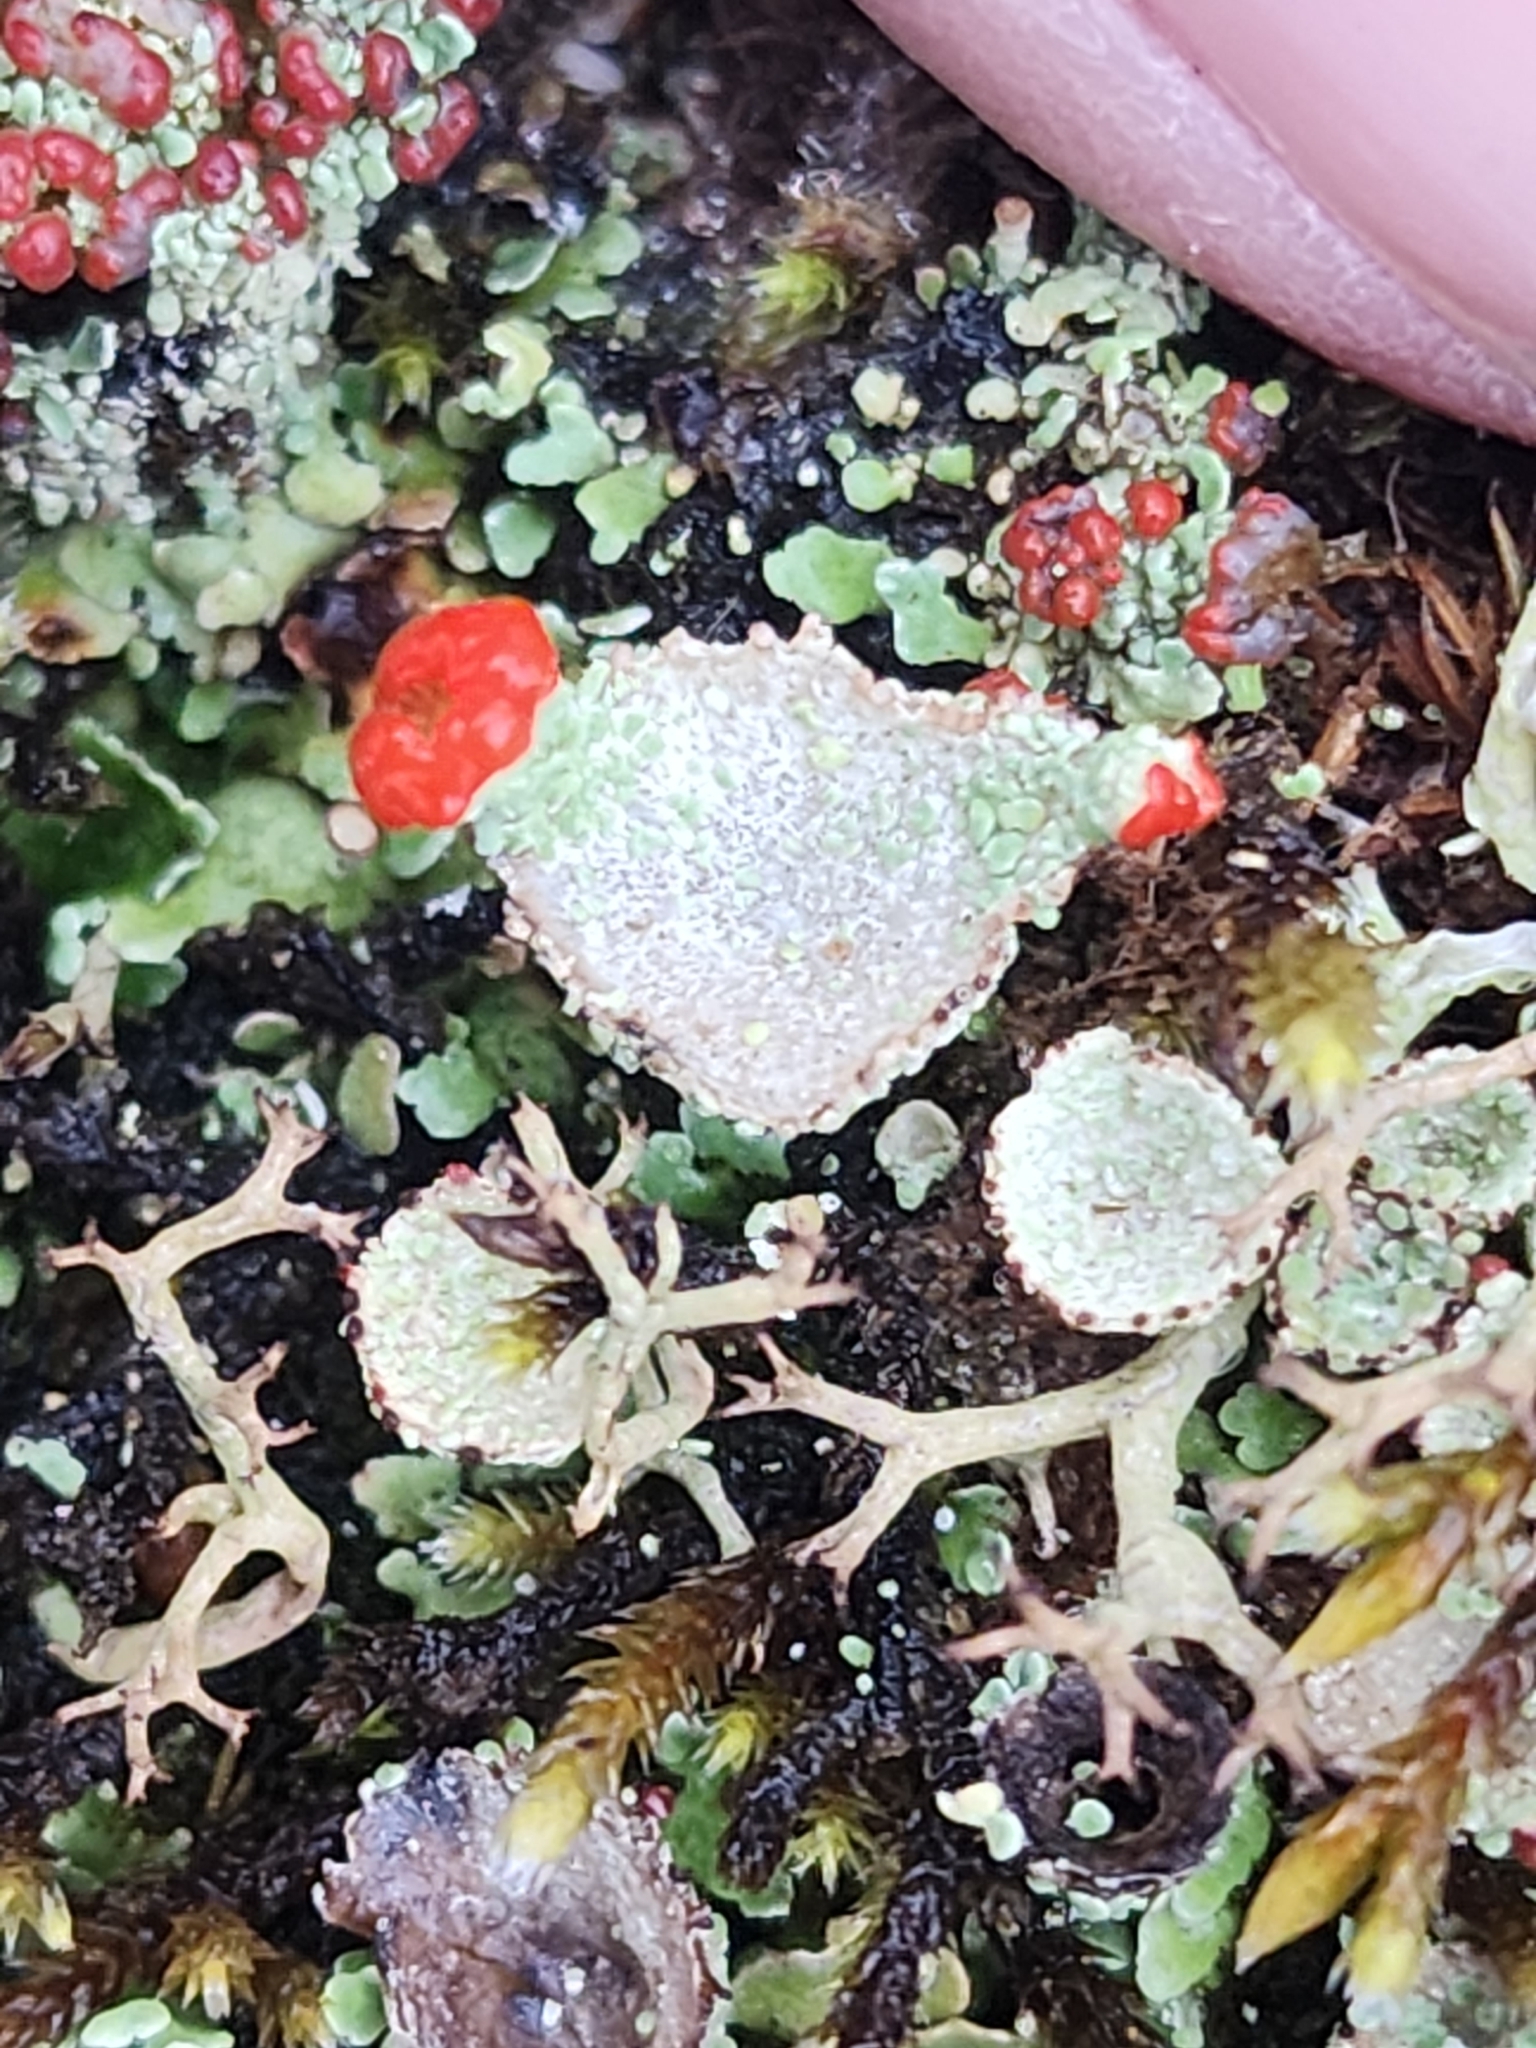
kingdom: Fungi
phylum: Ascomycota
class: Lecanoromycetes
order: Lecanorales
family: Cladoniaceae
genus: Cladonia
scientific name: Cladonia pleurota
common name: Red-fruited pixie cup
